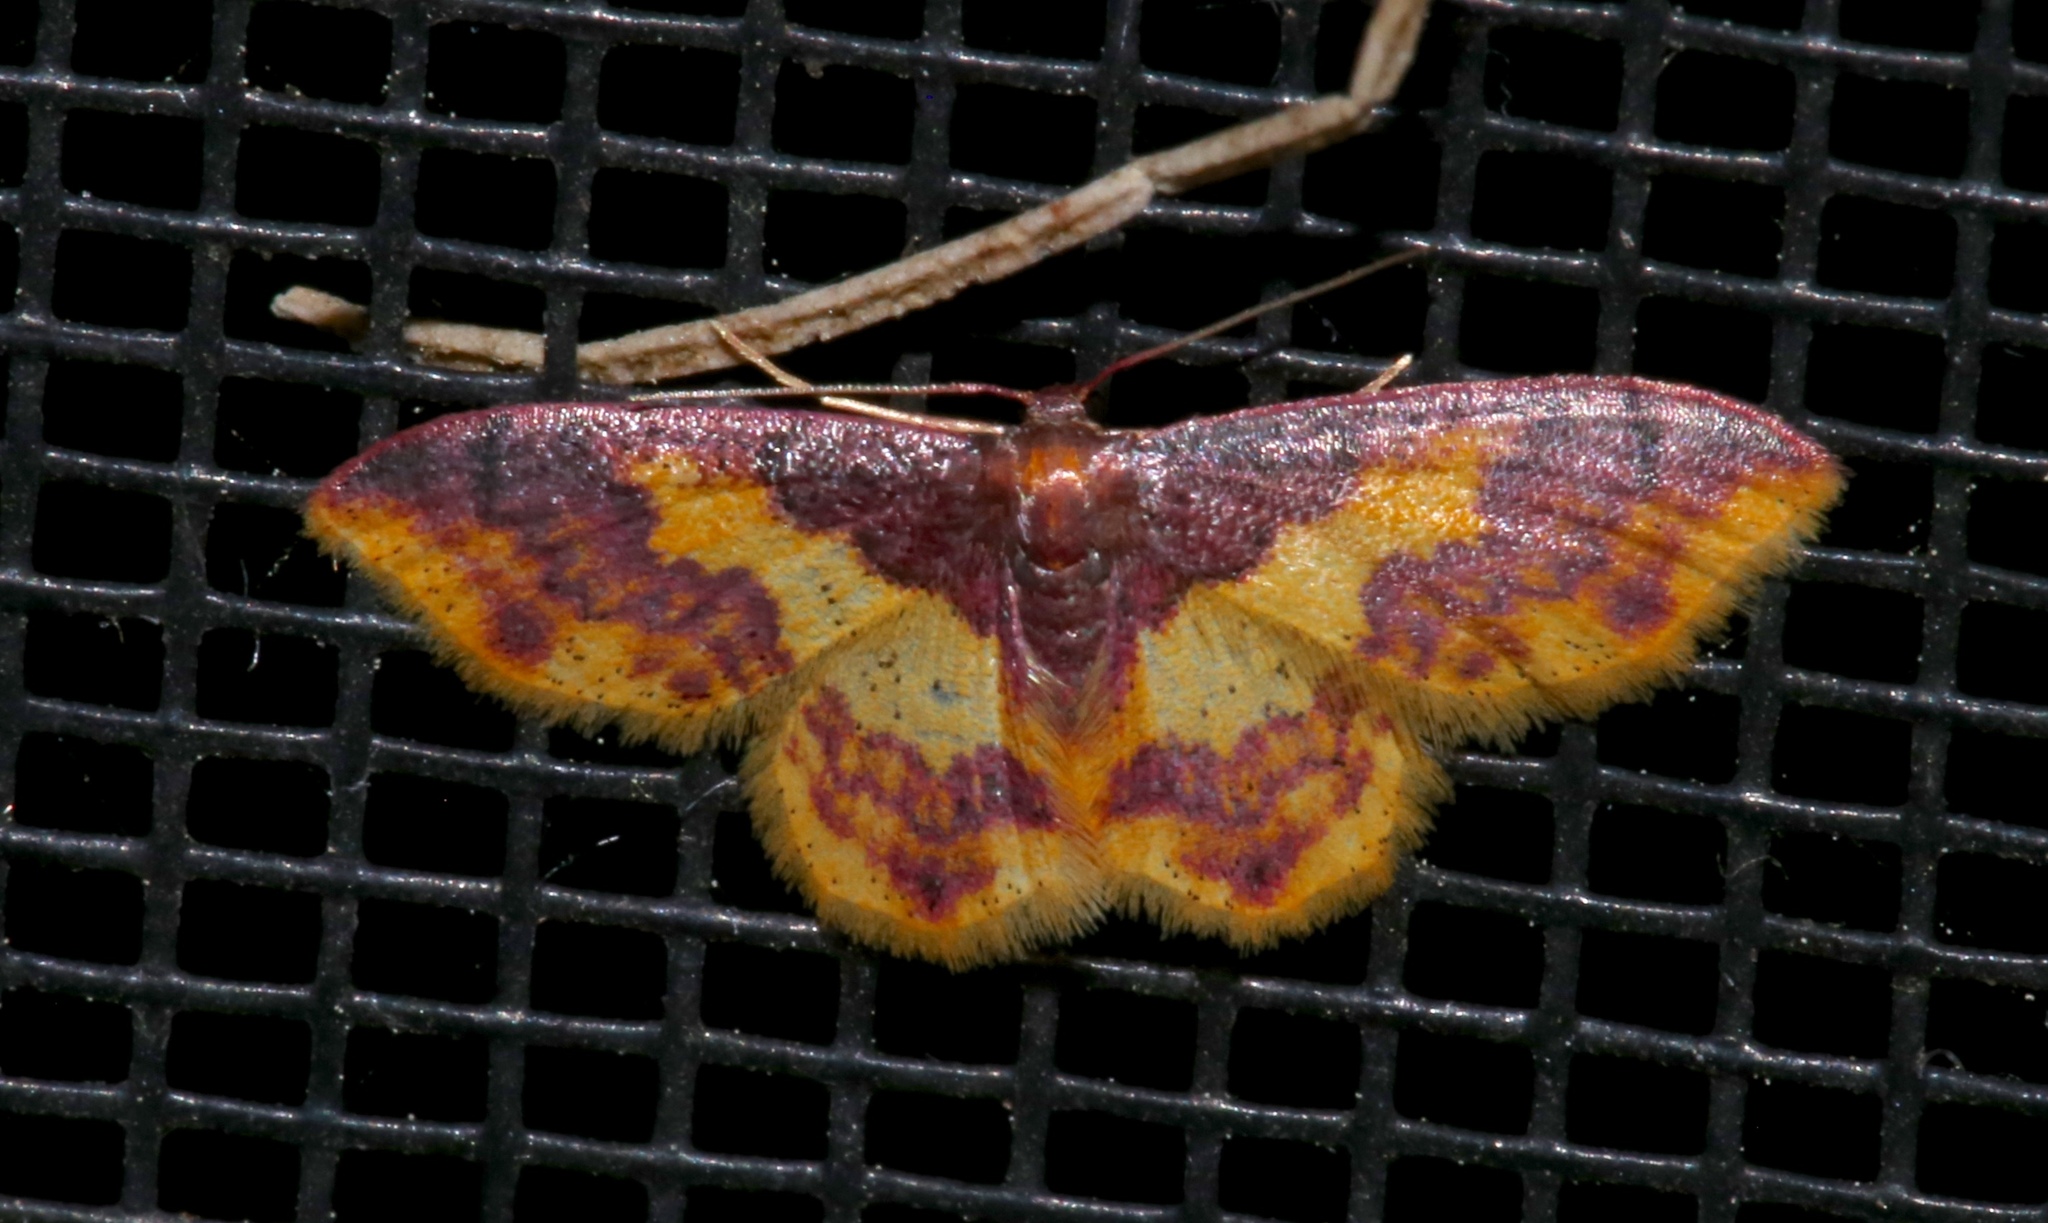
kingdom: Animalia
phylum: Arthropoda
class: Insecta
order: Lepidoptera
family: Geometridae
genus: Lophosis
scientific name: Lophosis labeculata
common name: Stained lophosis moth
